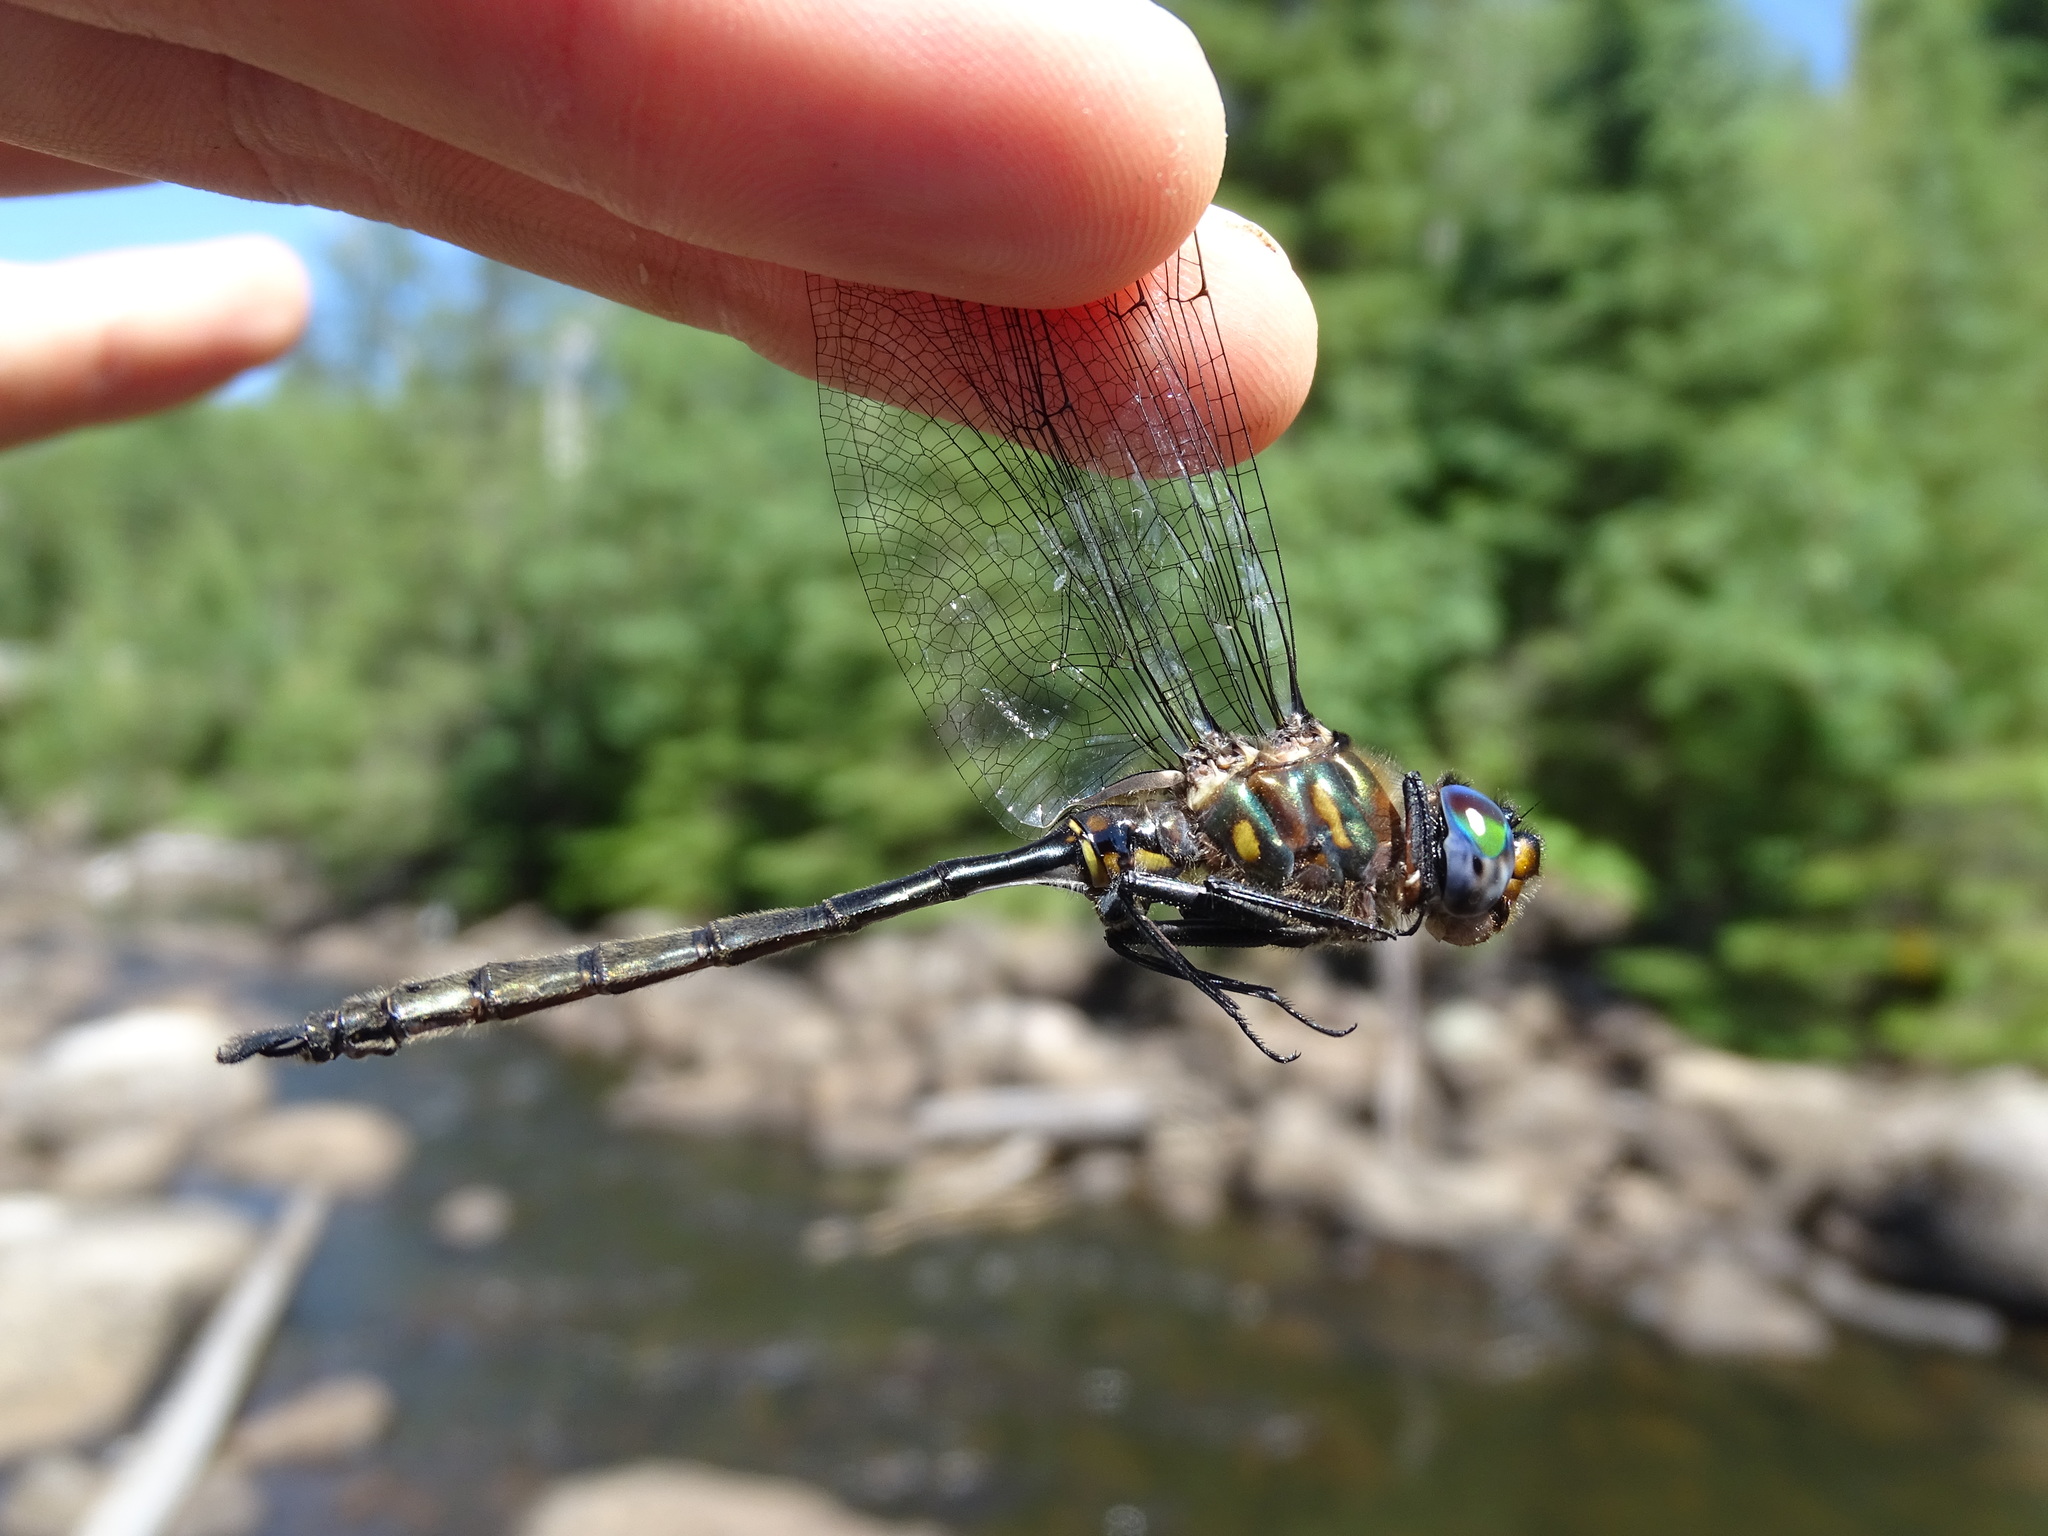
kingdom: Animalia
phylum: Arthropoda
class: Insecta
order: Odonata
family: Corduliidae
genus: Somatochlora
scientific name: Somatochlora williamsoni
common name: Williamson's emerald
